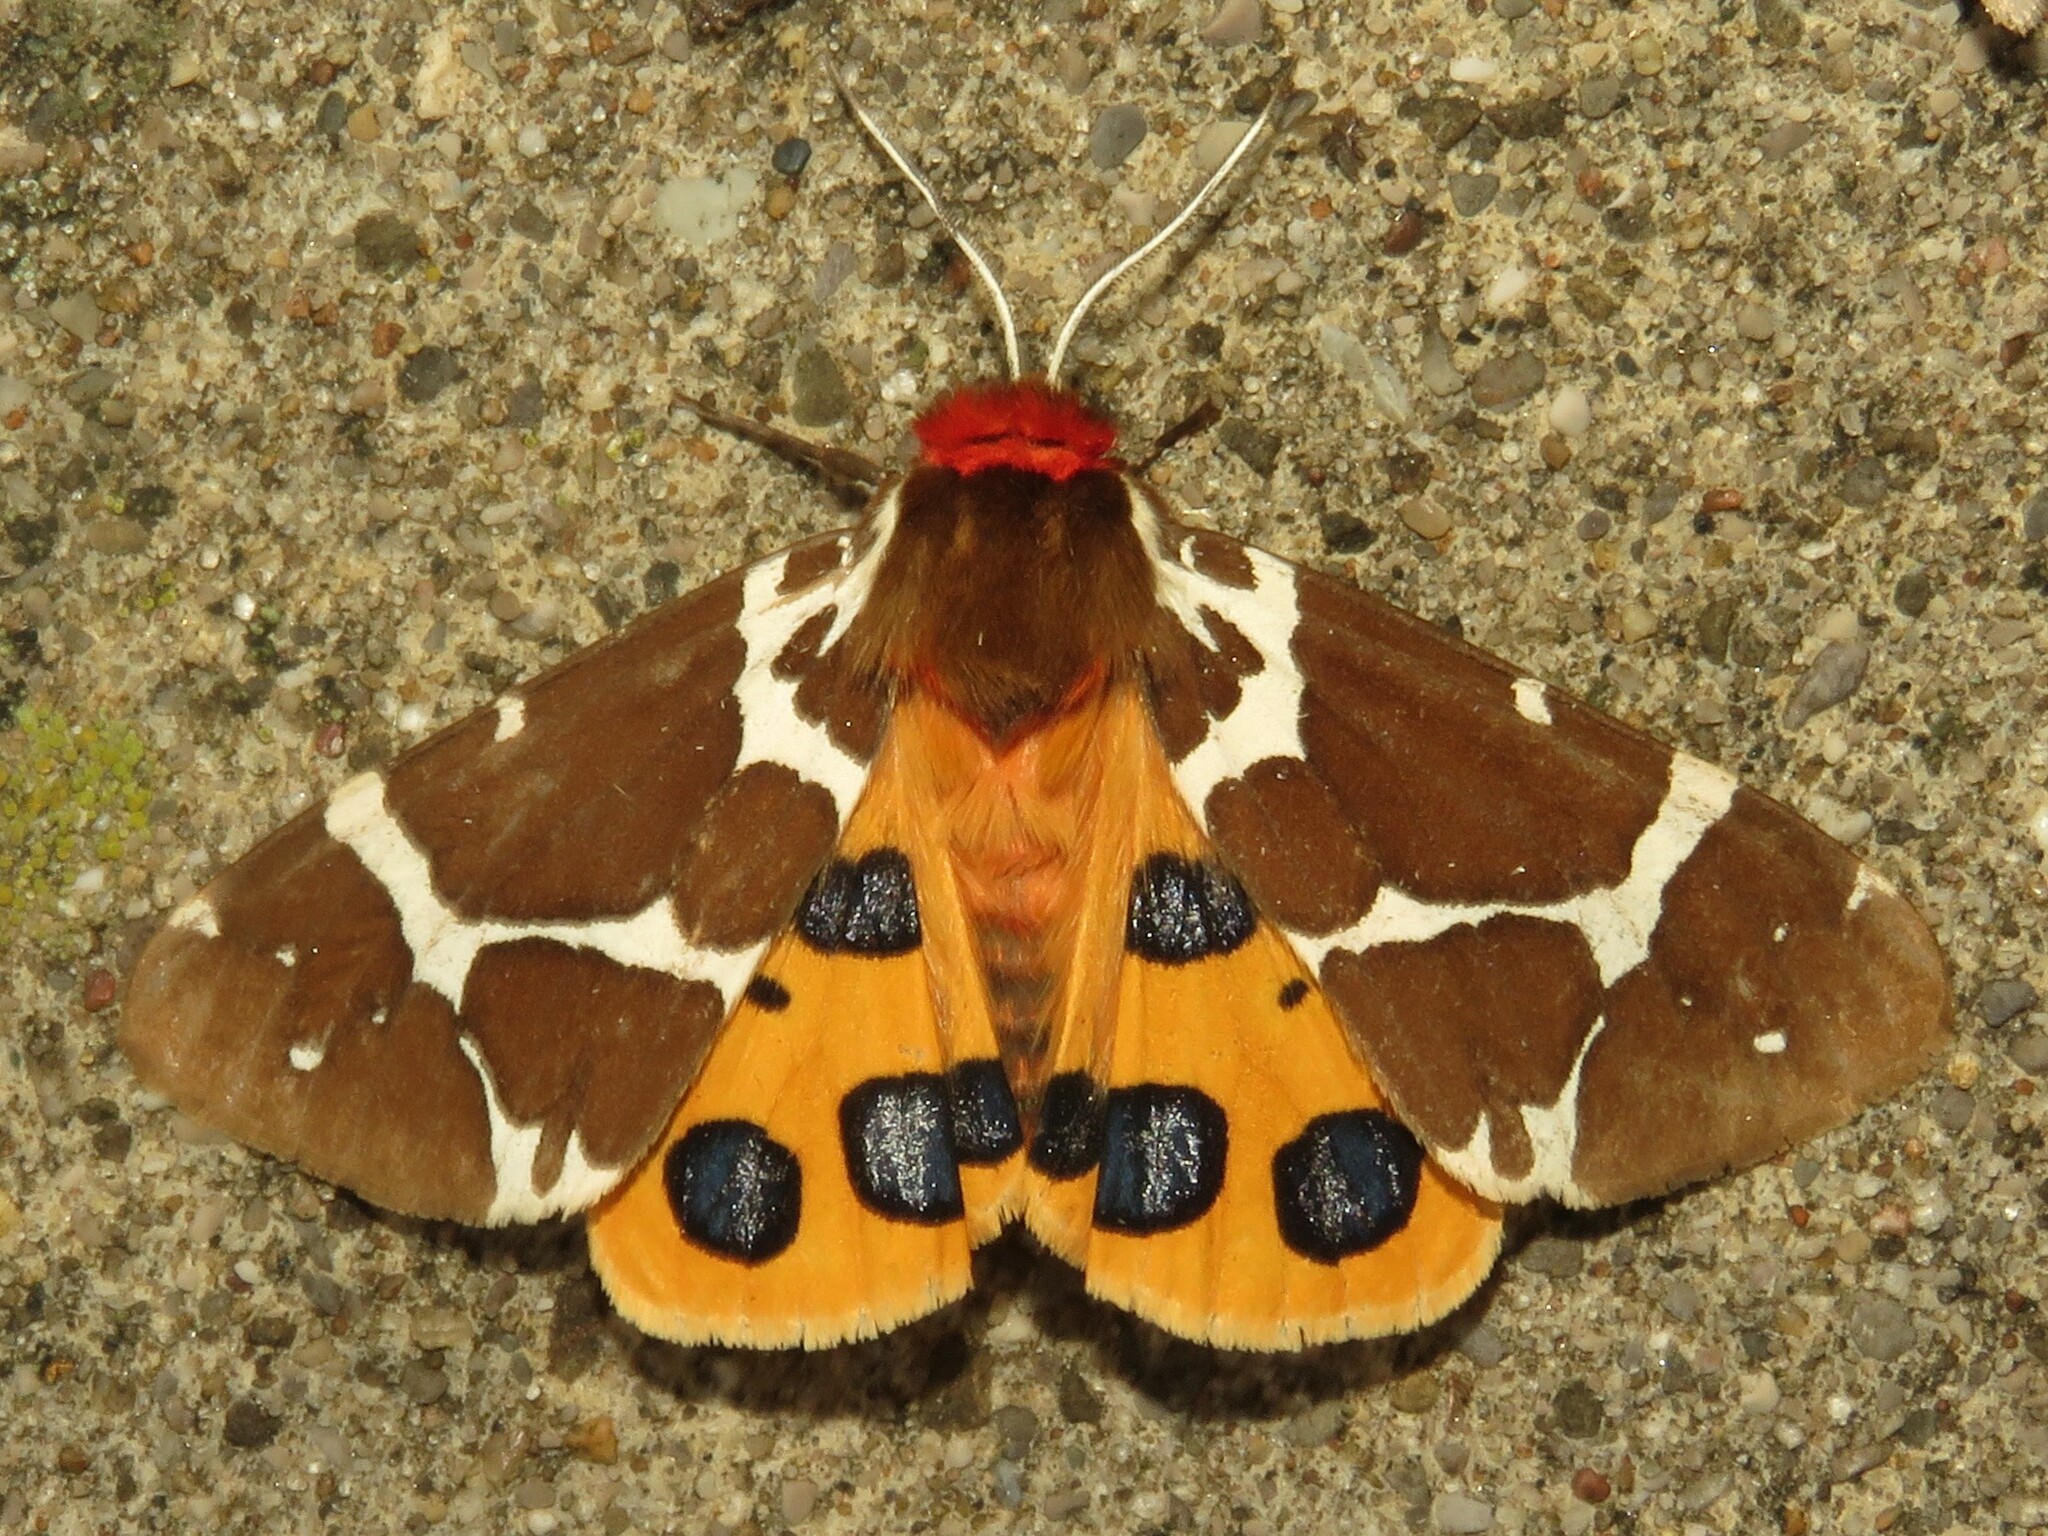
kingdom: Animalia
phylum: Arthropoda
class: Insecta
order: Lepidoptera
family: Erebidae
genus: Arctia
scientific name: Arctia caja
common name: Garden tiger
